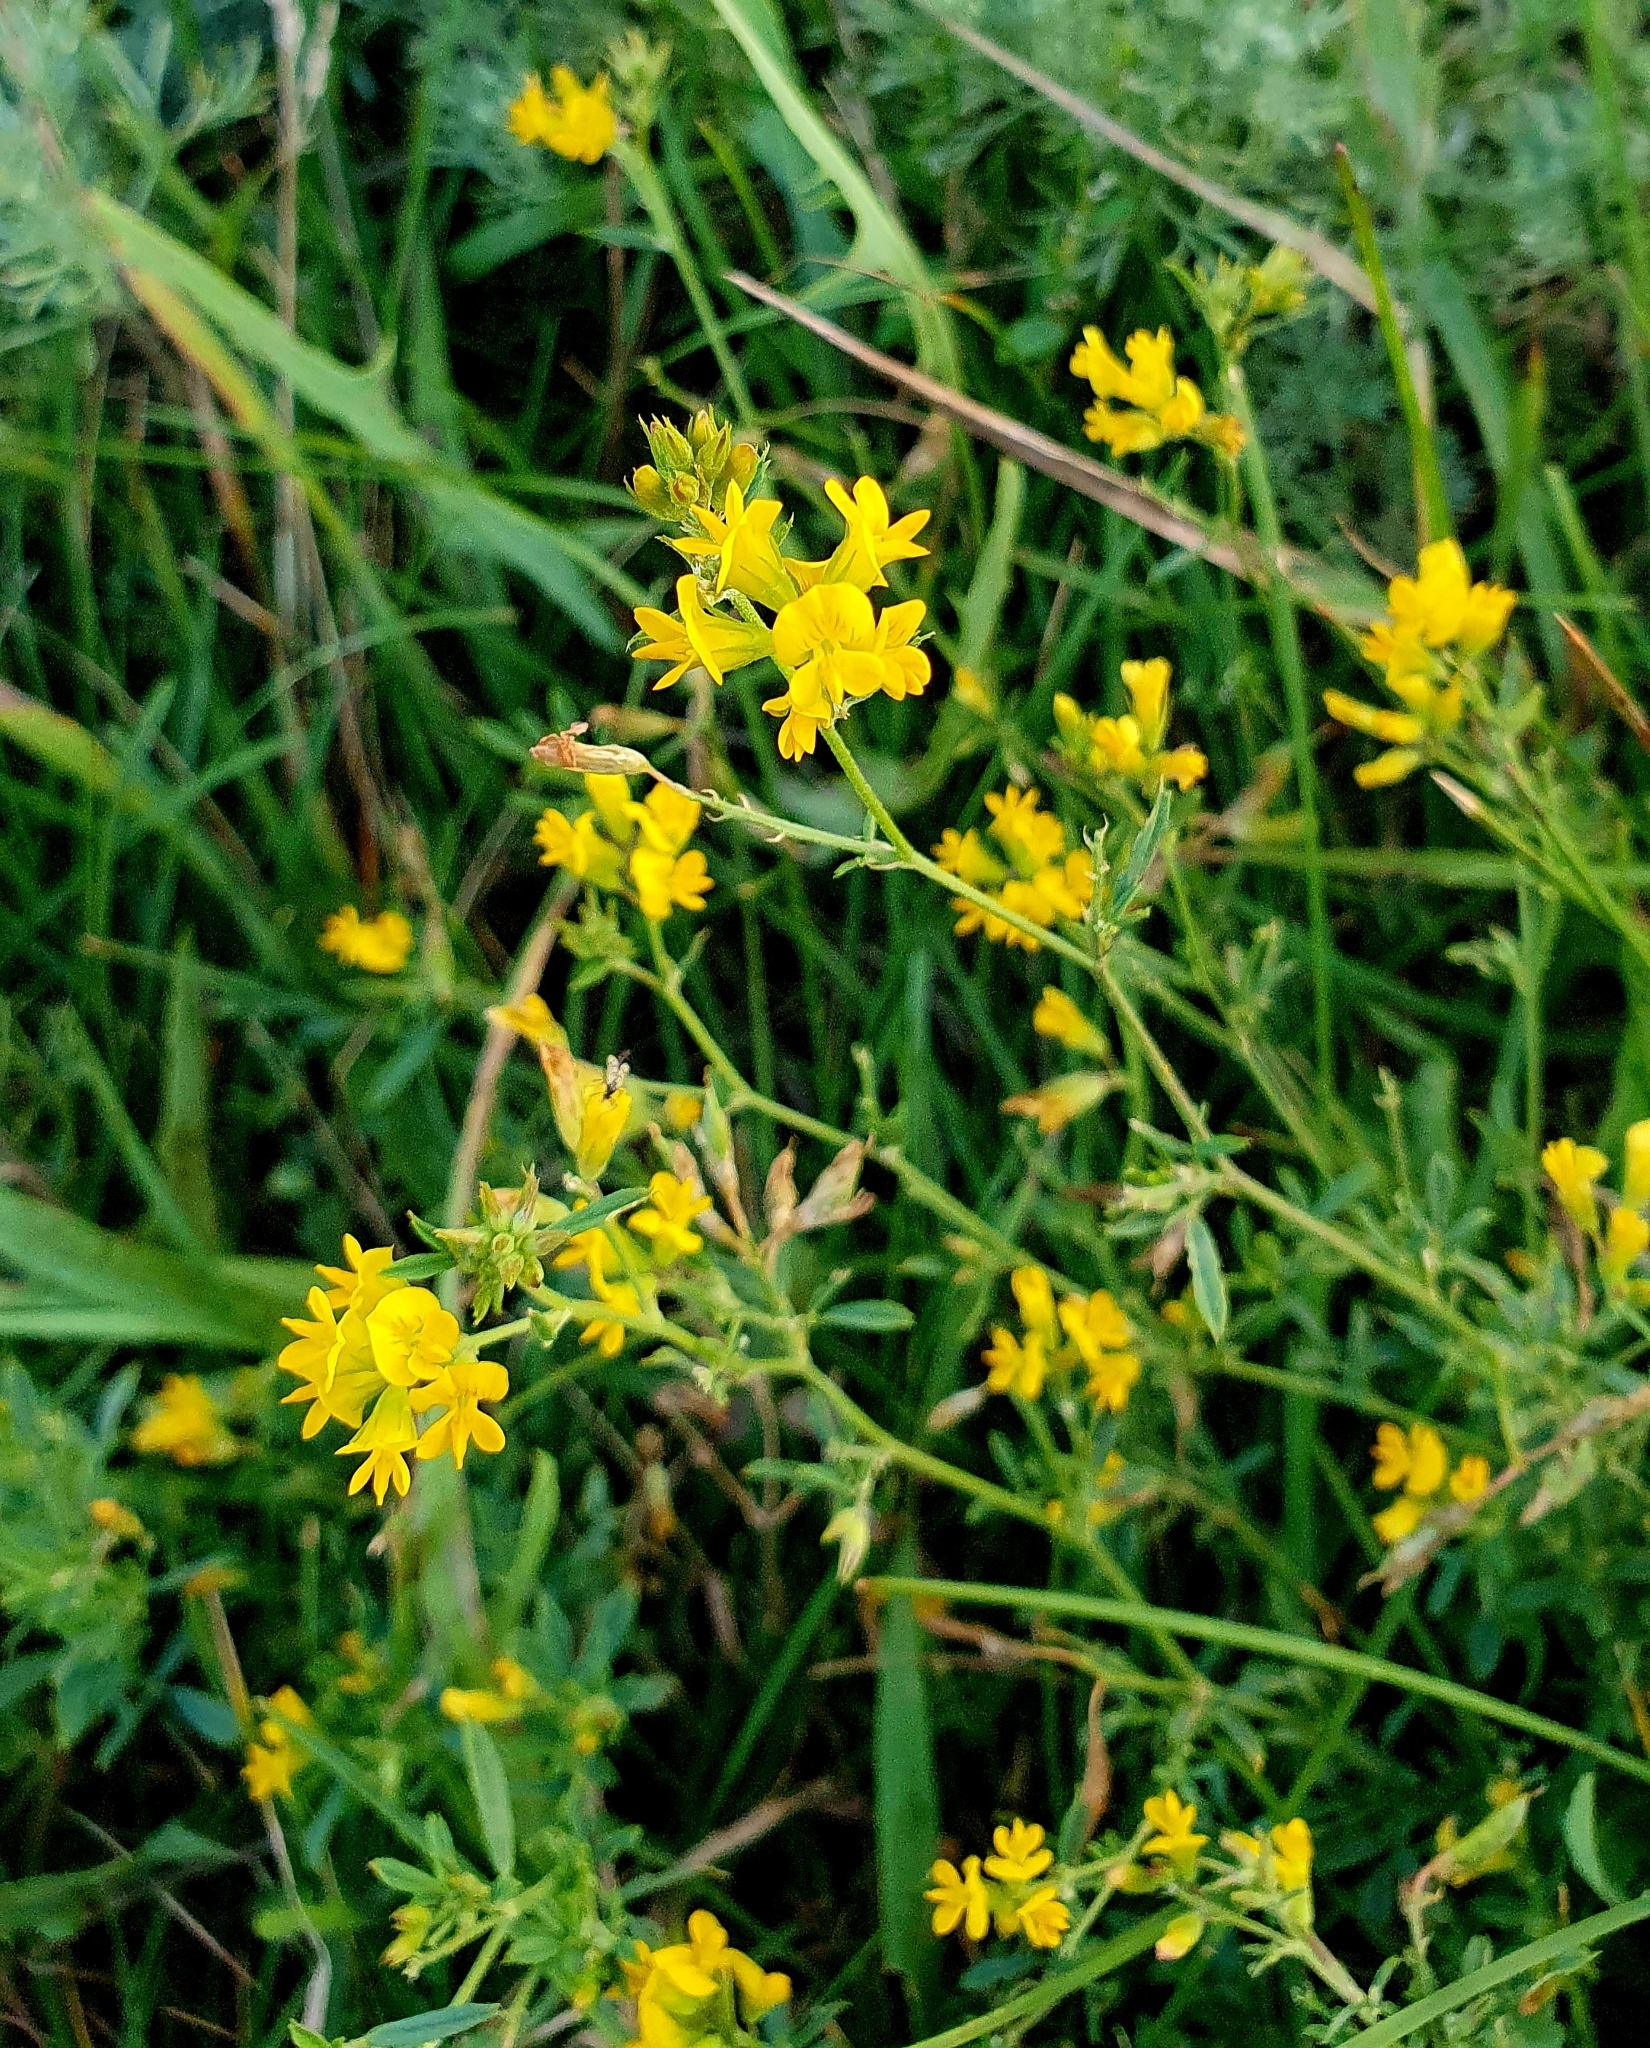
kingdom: Plantae
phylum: Tracheophyta
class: Magnoliopsida
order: Fabales
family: Fabaceae
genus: Medicago
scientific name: Medicago falcata
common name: Sickle medick
